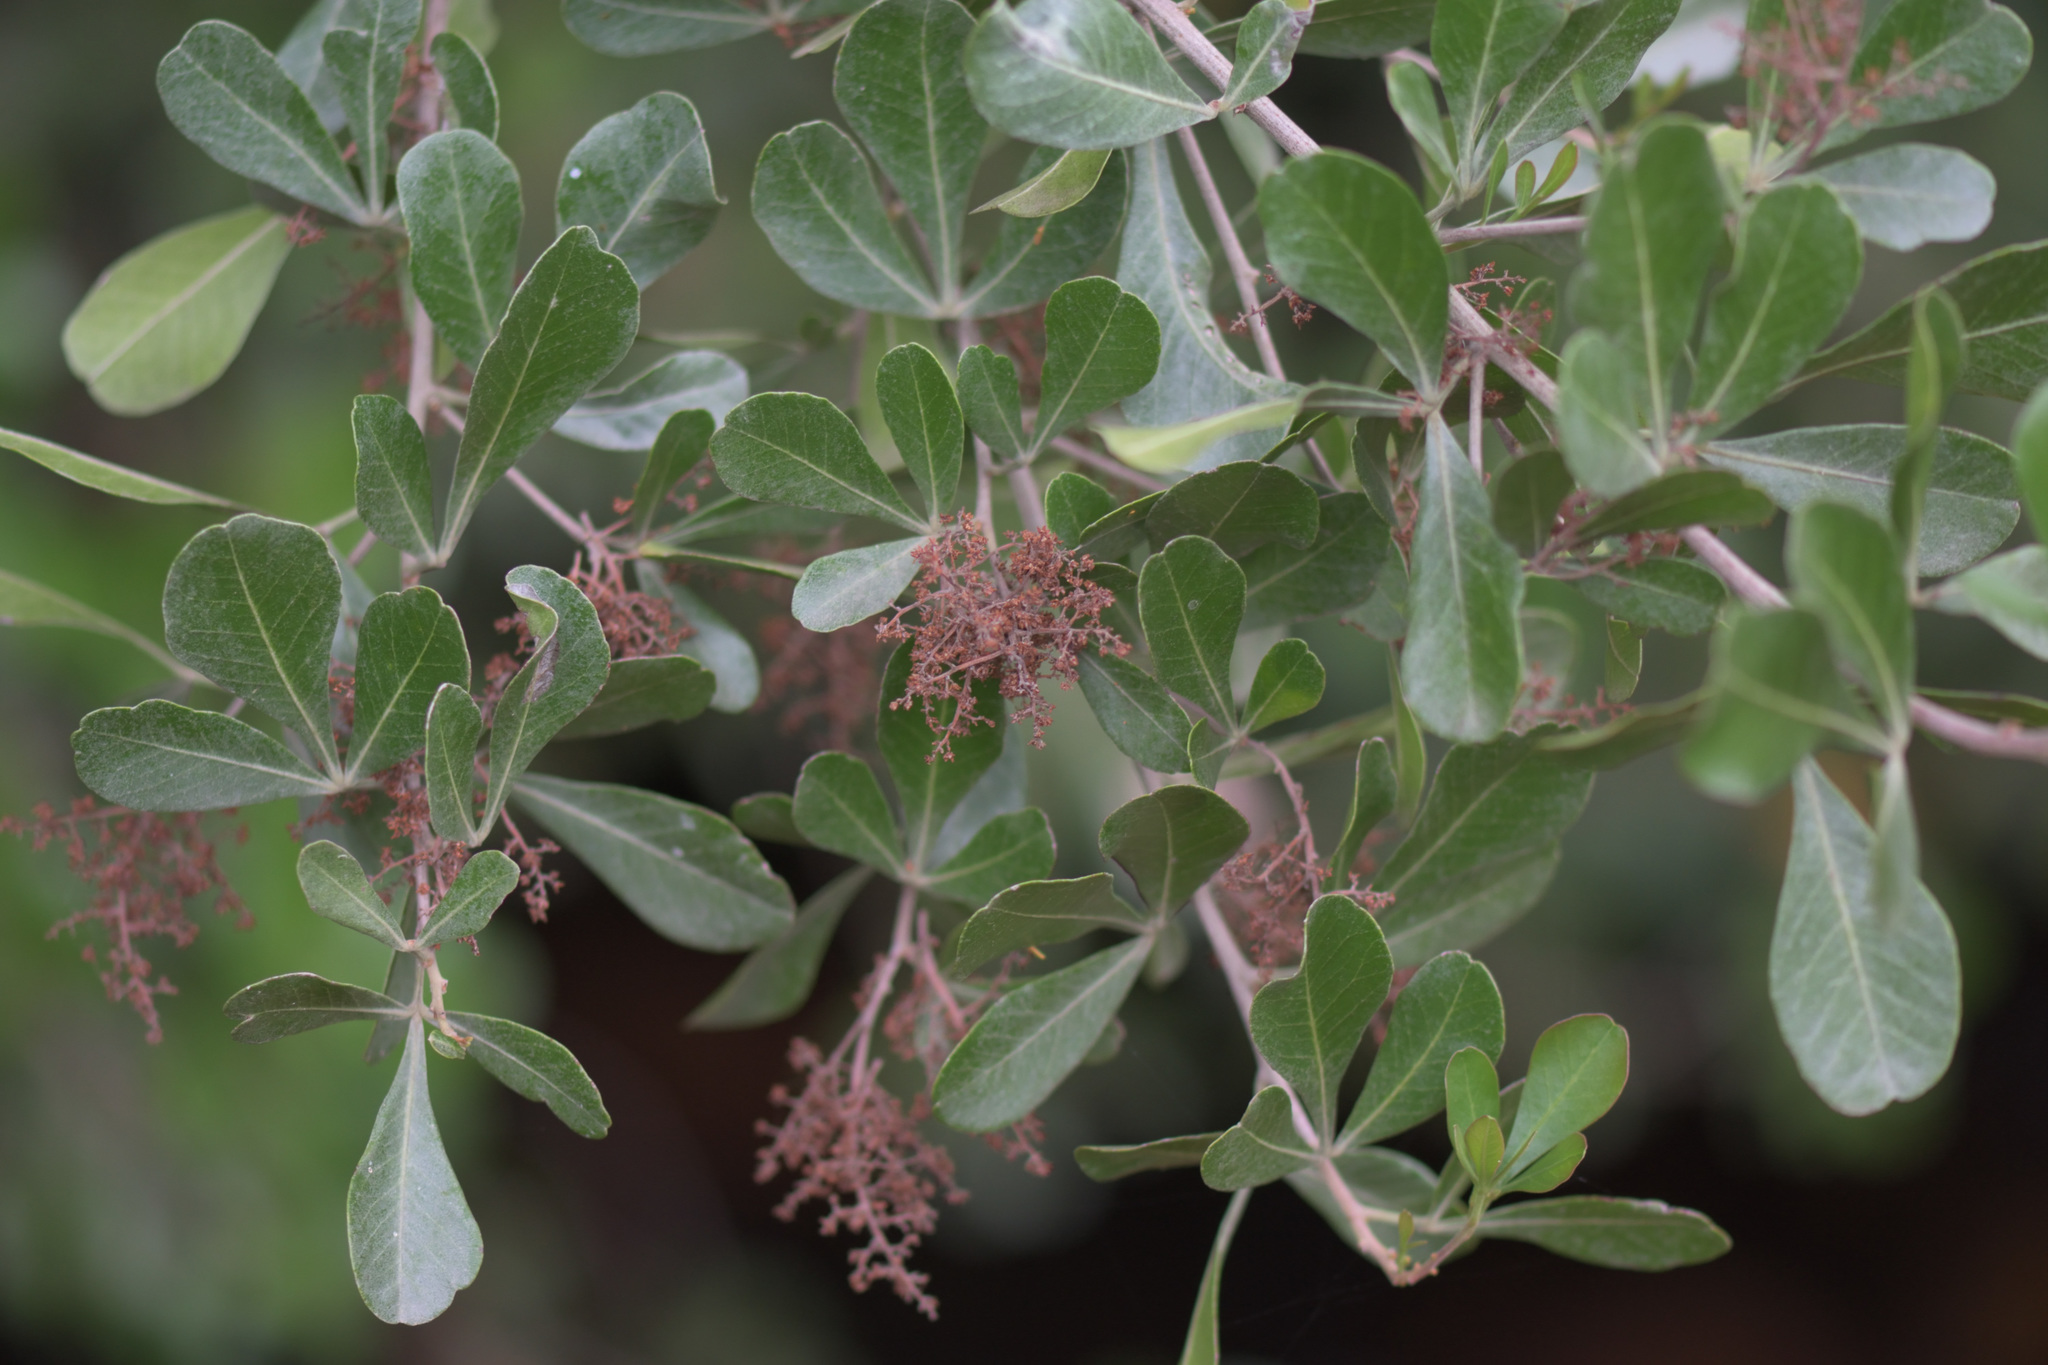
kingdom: Plantae
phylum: Tracheophyta
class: Magnoliopsida
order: Sapindales
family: Anacardiaceae
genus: Searsia
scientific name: Searsia lucida
